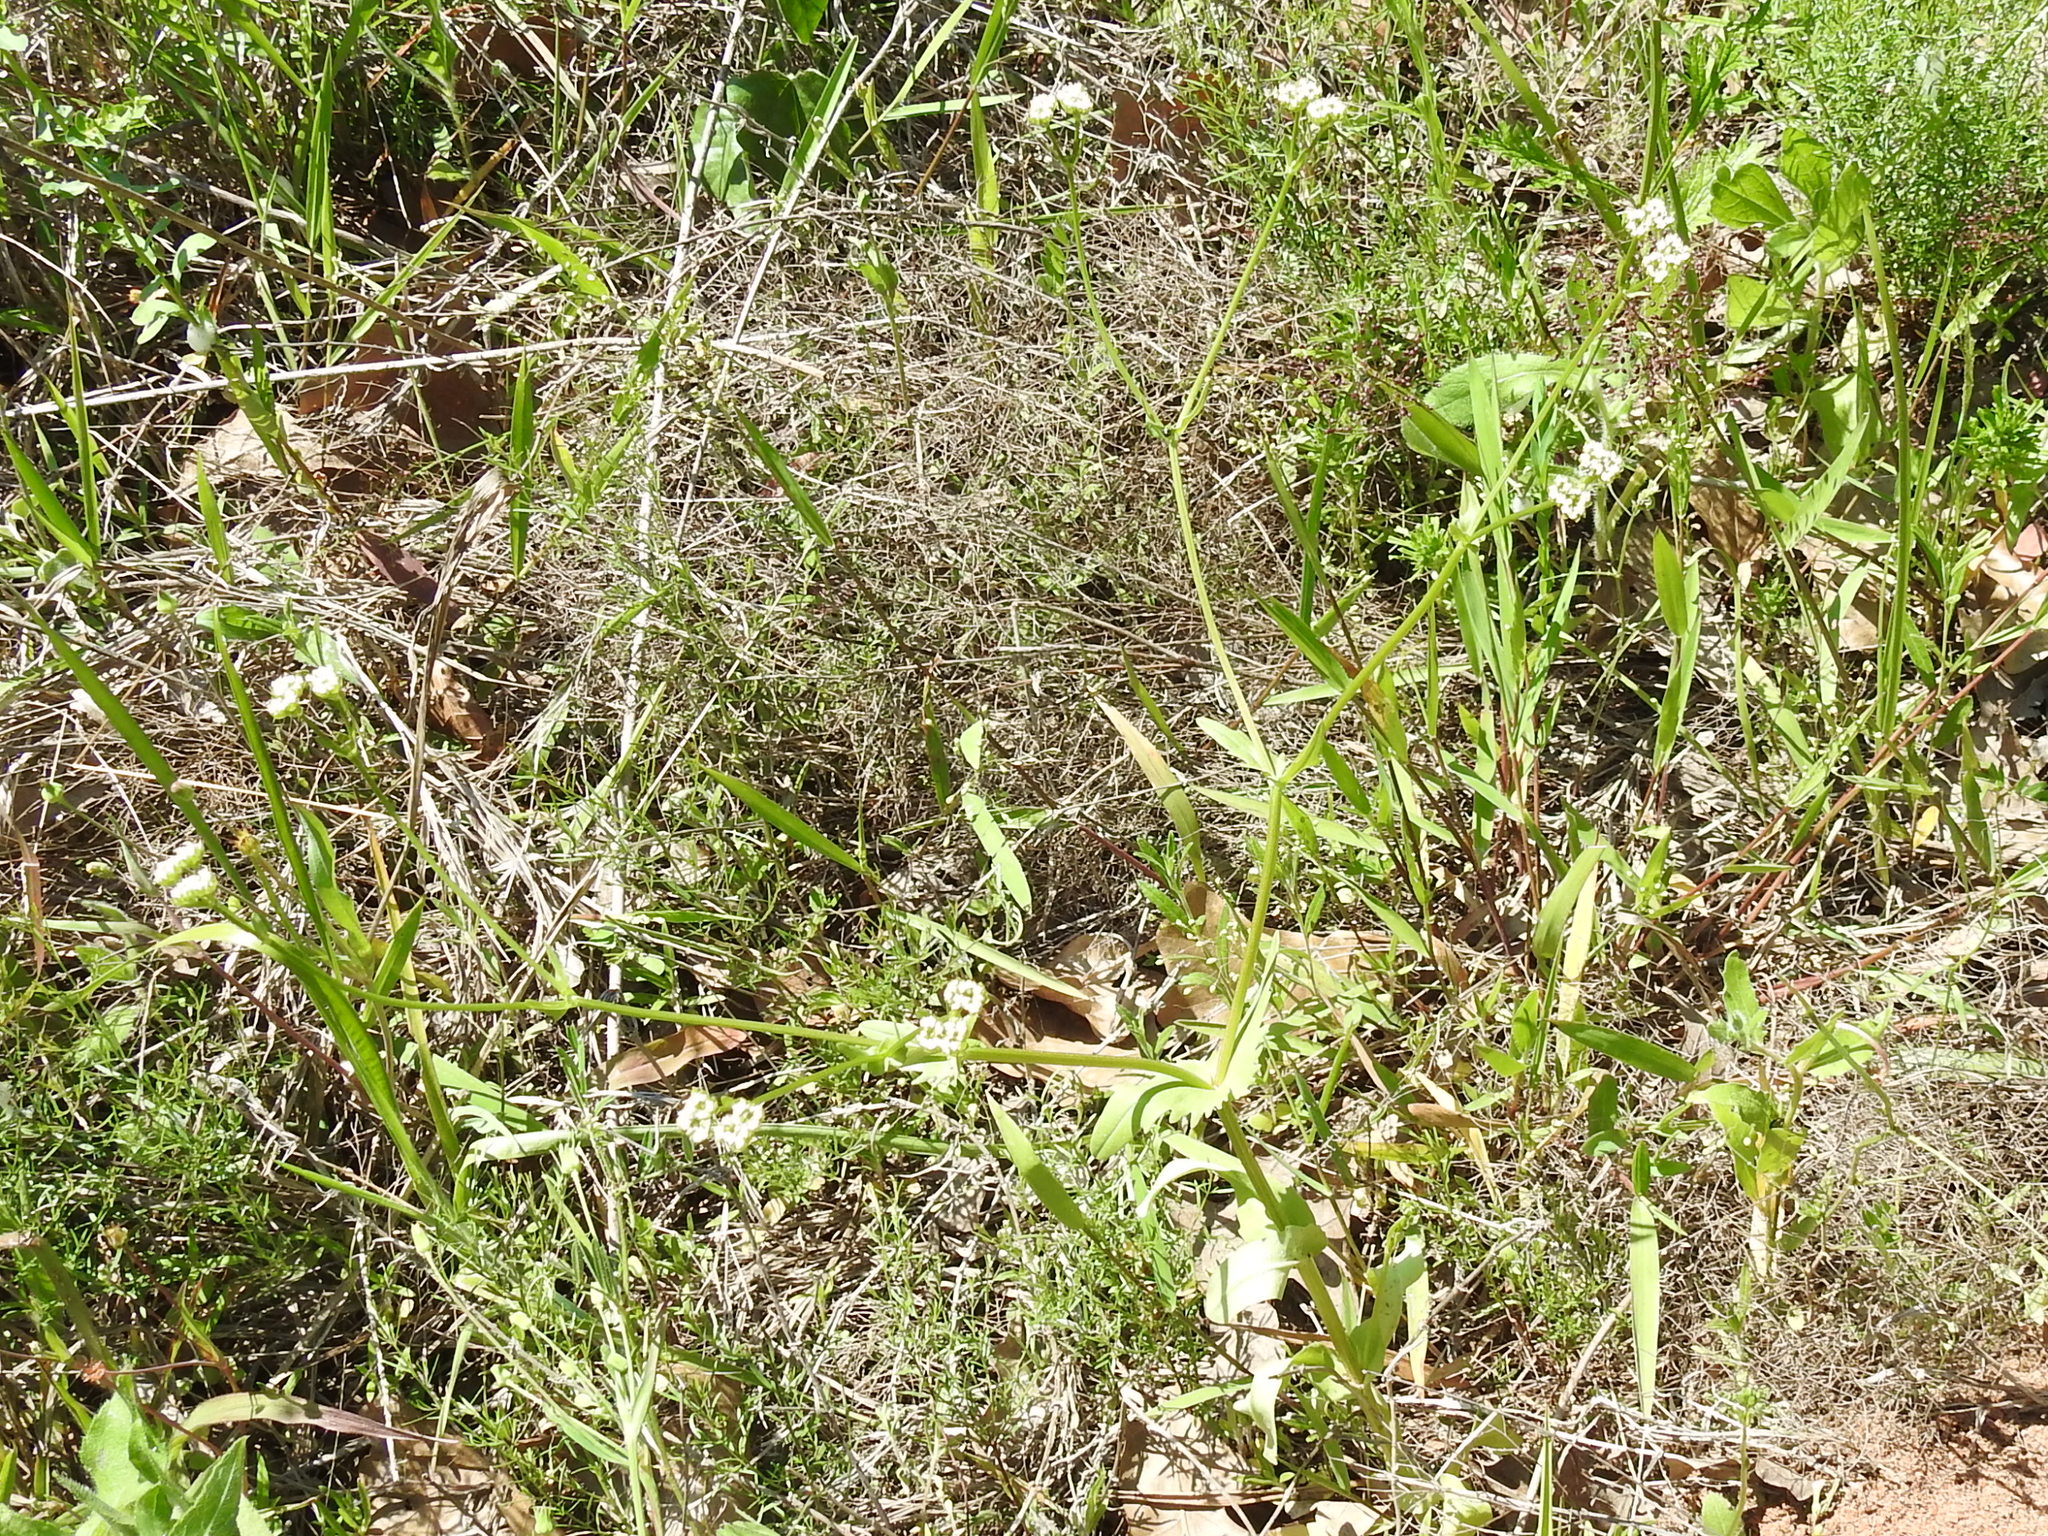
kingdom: Plantae
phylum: Tracheophyta
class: Magnoliopsida
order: Dipsacales
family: Caprifoliaceae
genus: Valerianella
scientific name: Valerianella radiata
